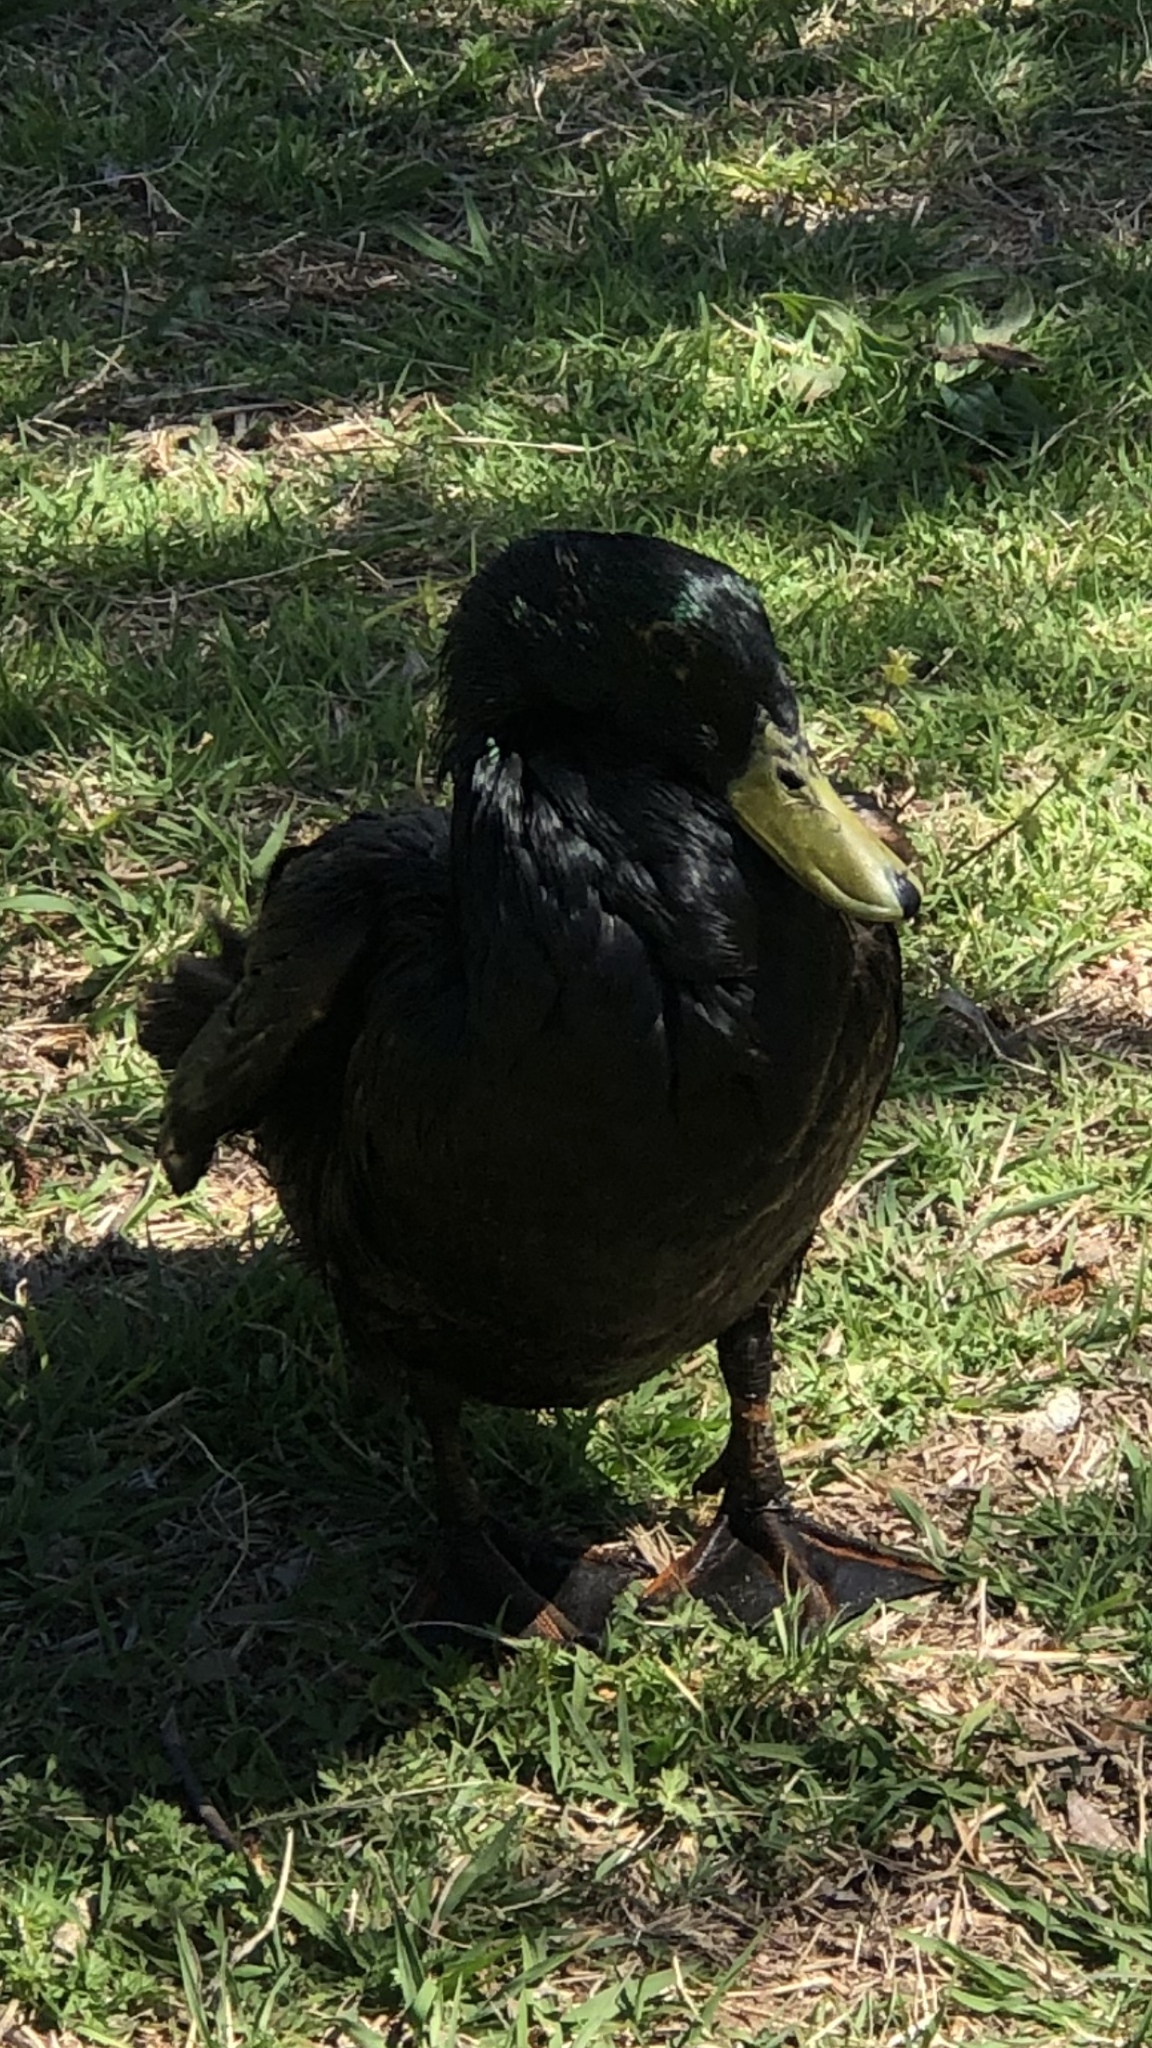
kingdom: Animalia
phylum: Chordata
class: Aves
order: Anseriformes
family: Anatidae
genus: Anas
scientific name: Anas platyrhynchos
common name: Mallard
